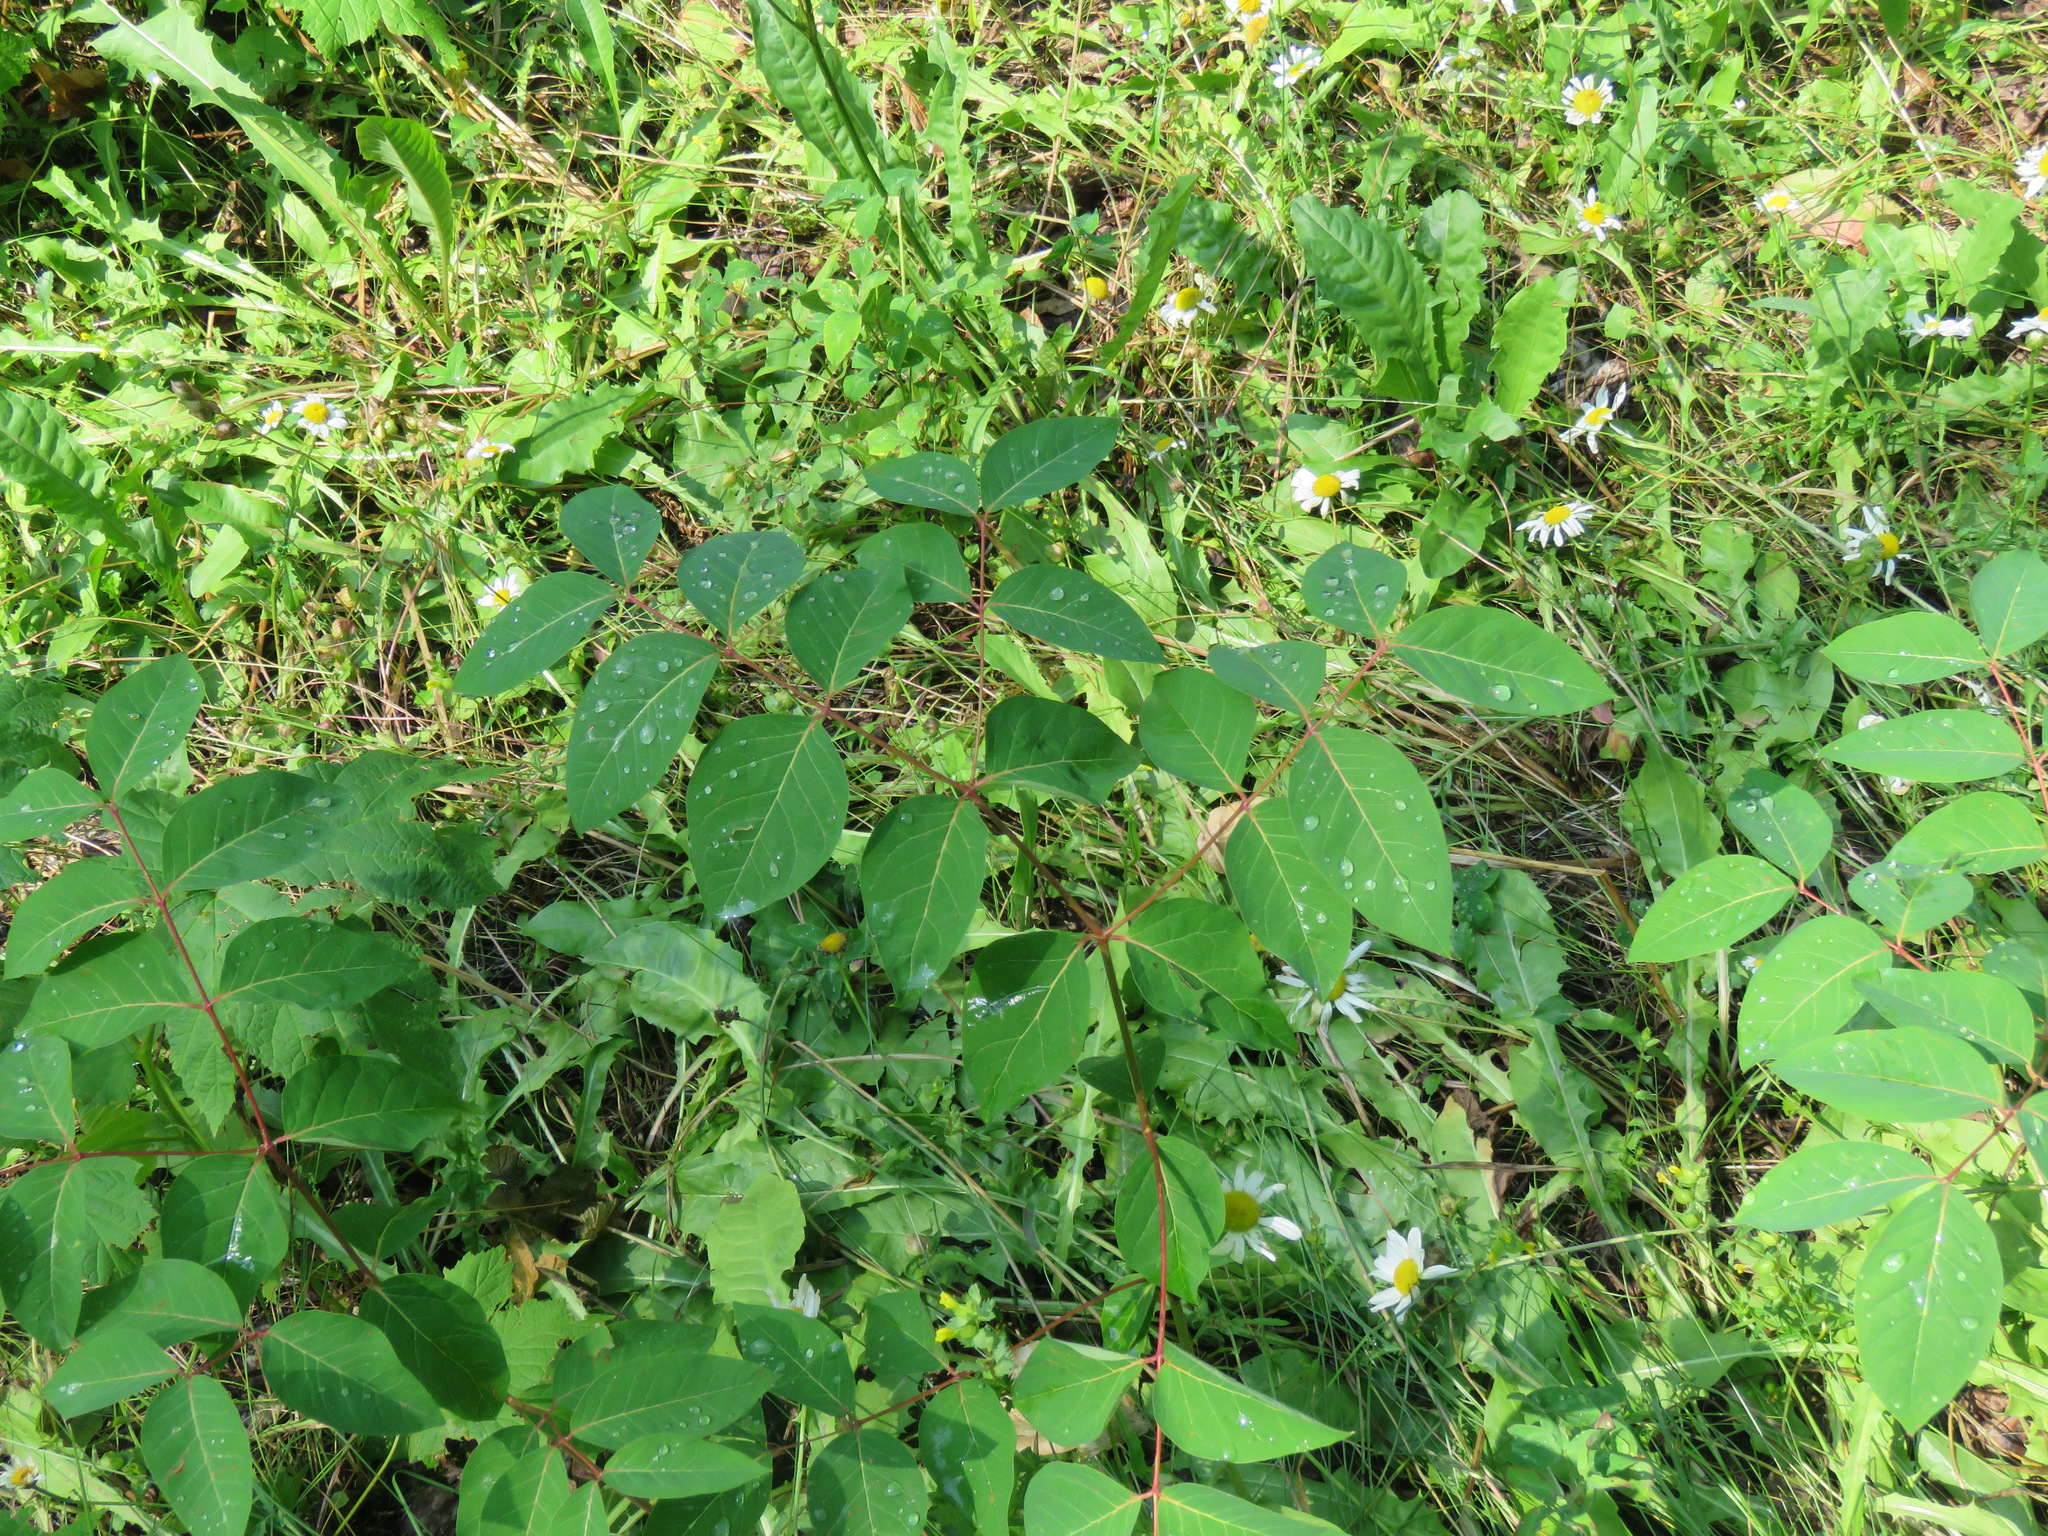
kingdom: Plantae
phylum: Tracheophyta
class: Magnoliopsida
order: Gentianales
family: Apocynaceae
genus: Apocynum
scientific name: Apocynum androsaemifolium
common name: Spreading dogbane
